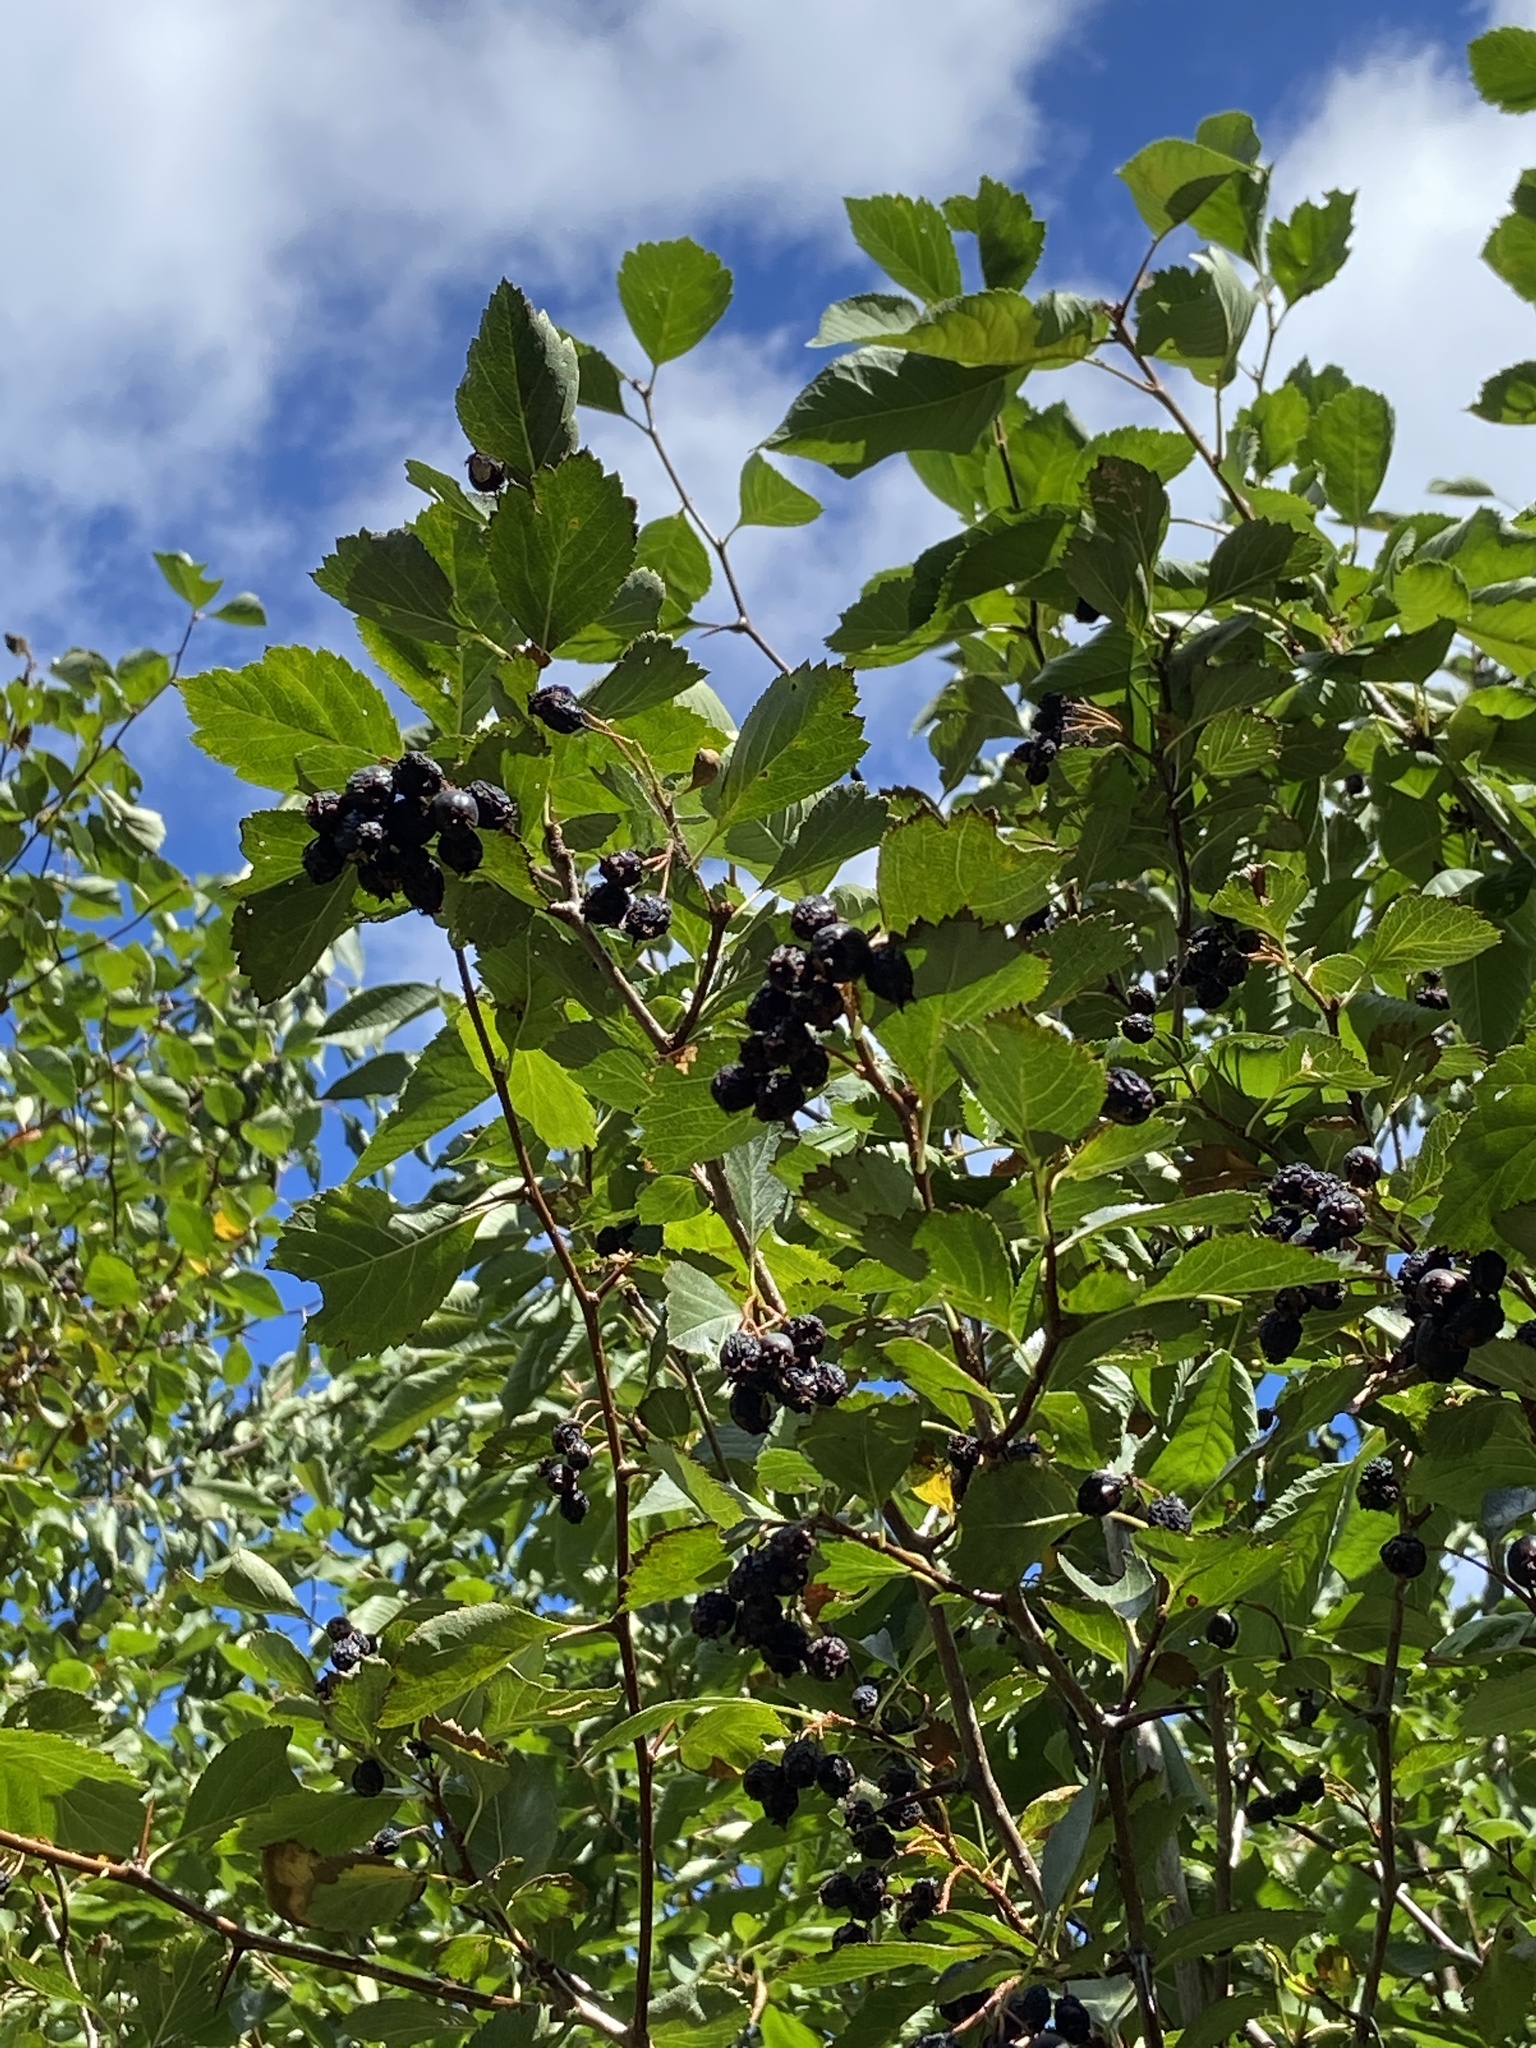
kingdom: Plantae
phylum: Tracheophyta
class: Magnoliopsida
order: Rosales
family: Rosaceae
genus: Crataegus
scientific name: Crataegus douglasii
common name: Black hawthorn
